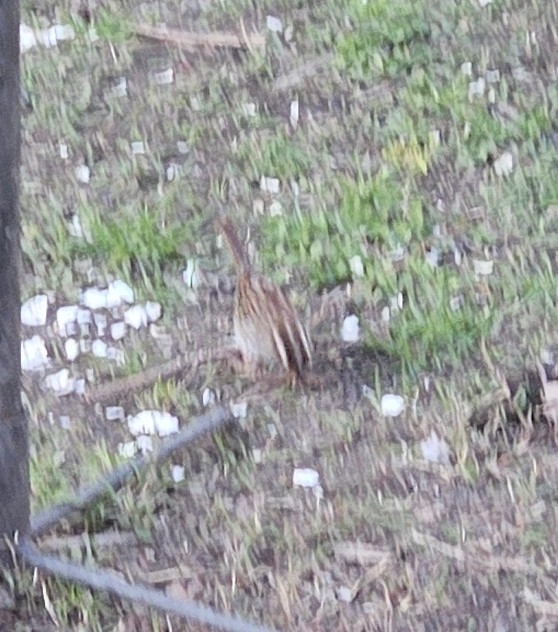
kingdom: Animalia
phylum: Chordata
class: Aves
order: Passeriformes
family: Passerellidae
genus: Zonotrichia
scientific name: Zonotrichia albicollis
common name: White-throated sparrow
